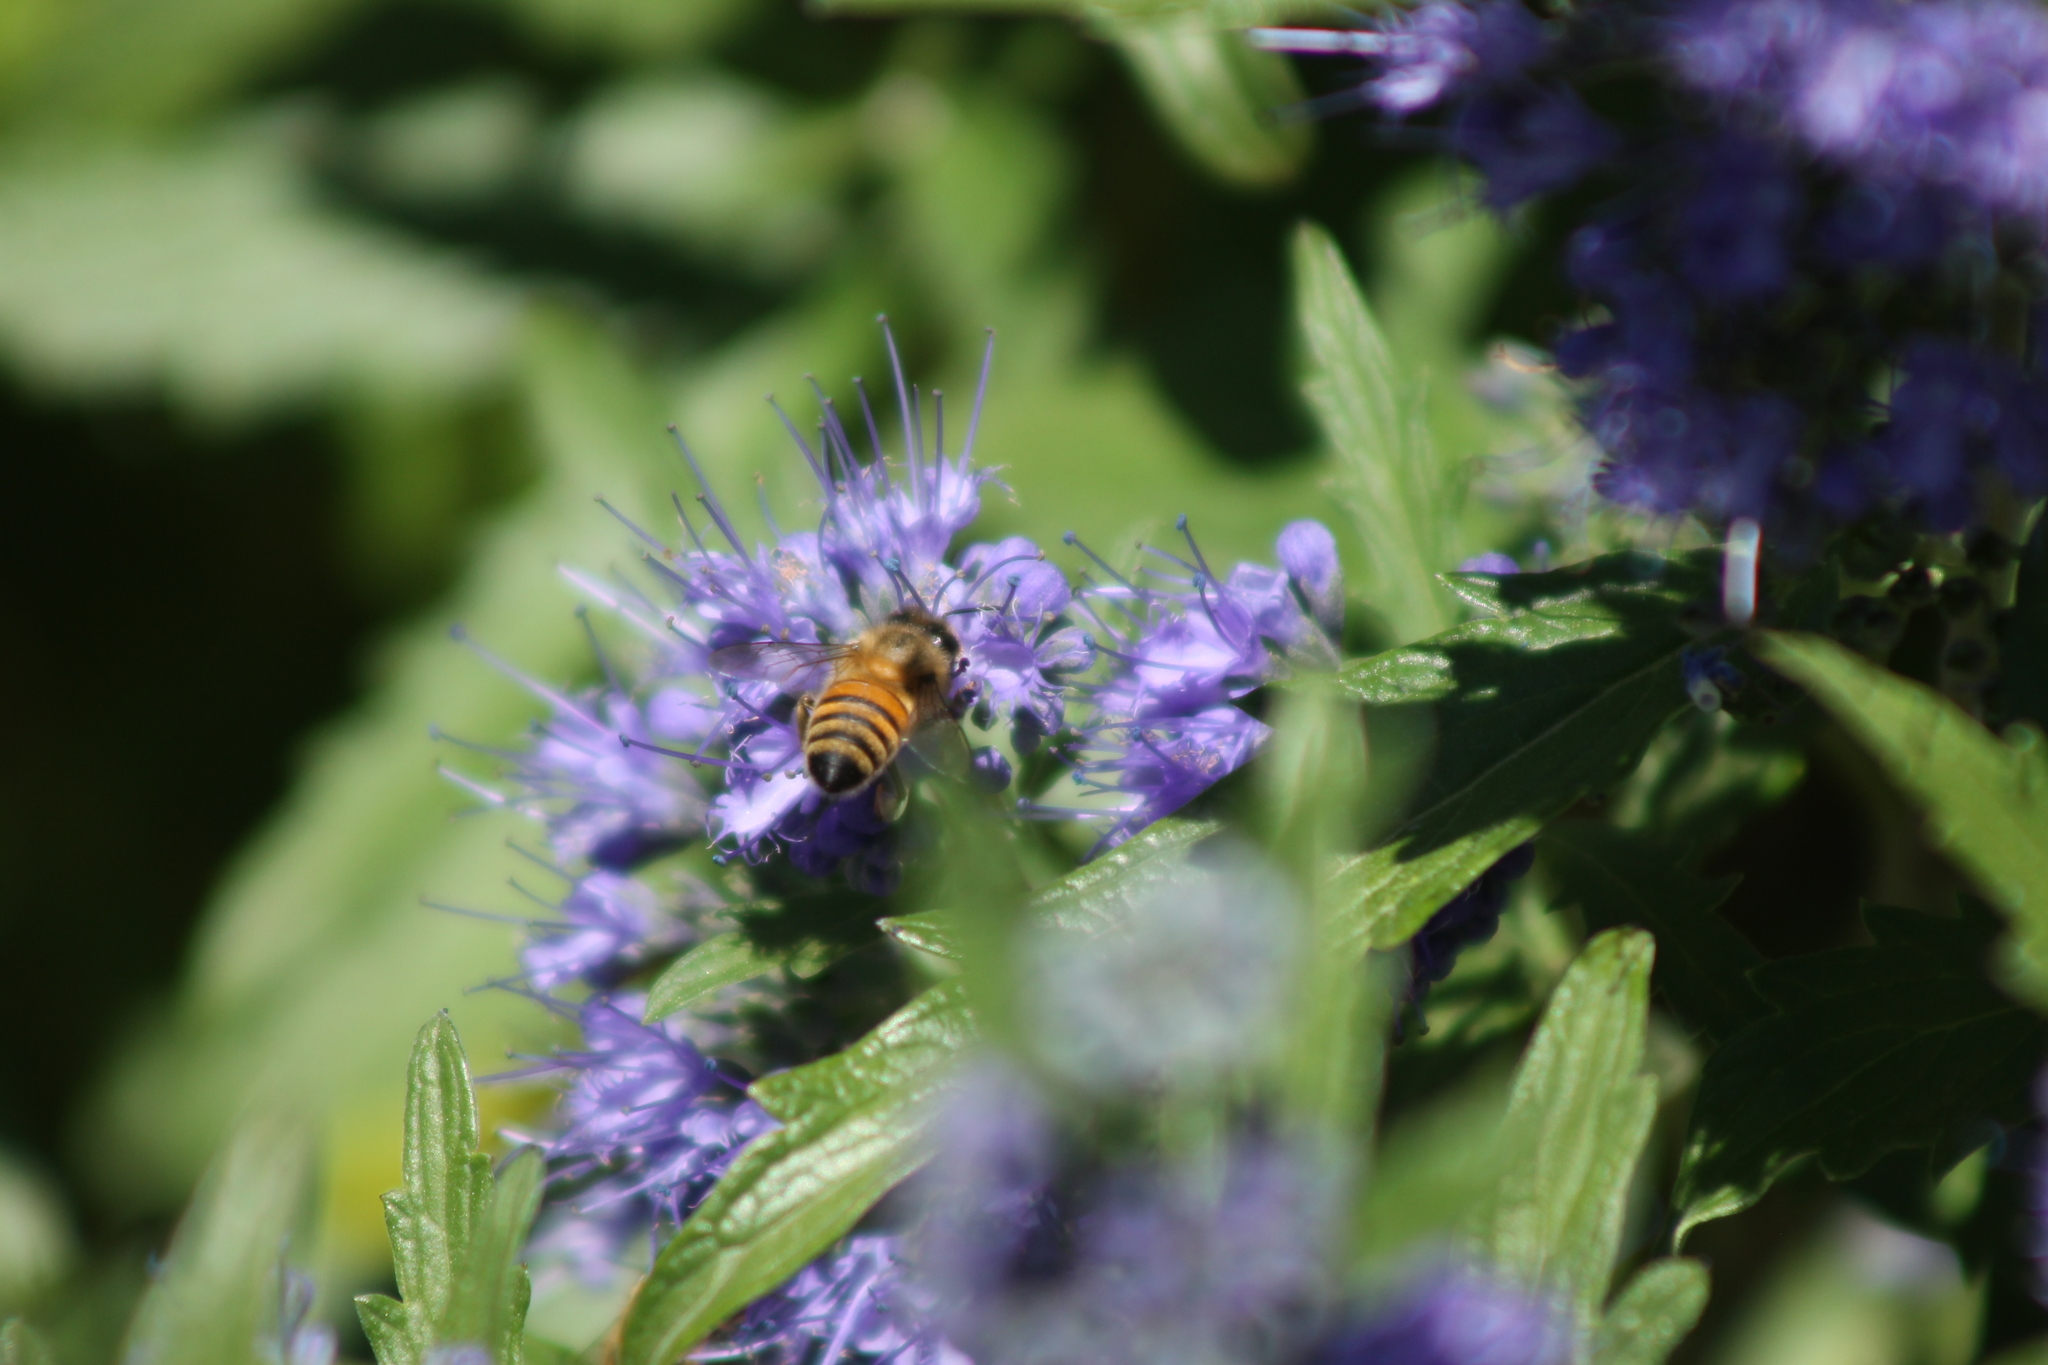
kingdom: Animalia
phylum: Arthropoda
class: Insecta
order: Hymenoptera
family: Apidae
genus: Apis
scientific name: Apis mellifera
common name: Honey bee
